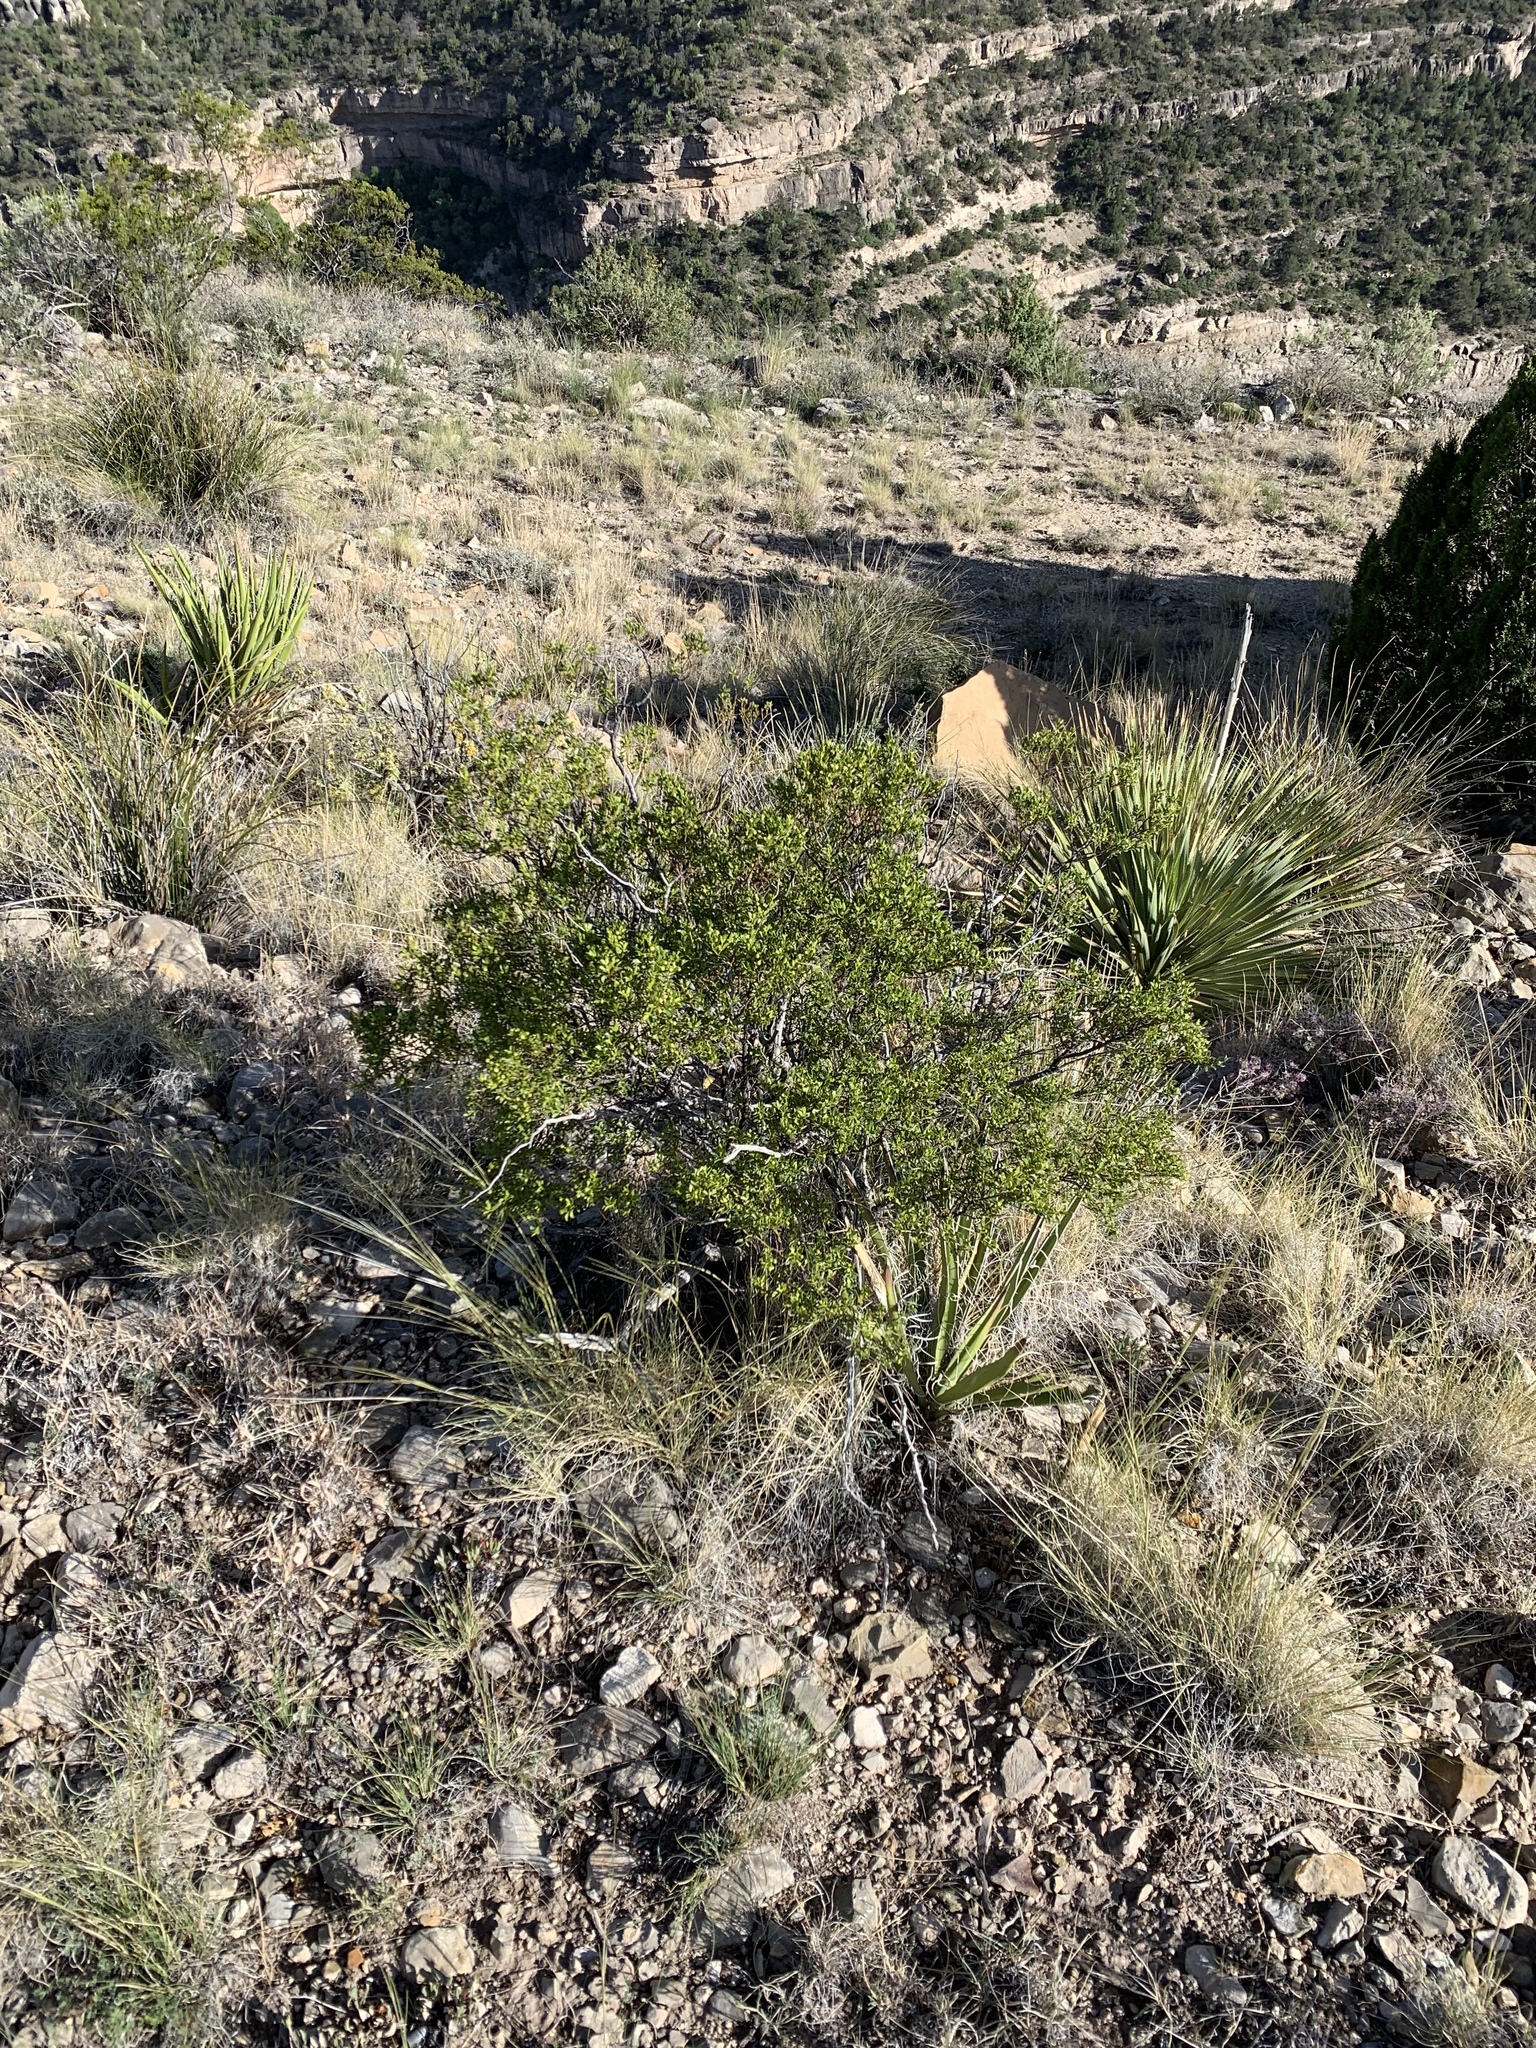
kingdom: Plantae
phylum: Tracheophyta
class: Magnoliopsida
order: Zygophyllales
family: Zygophyllaceae
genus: Larrea
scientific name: Larrea tridentata
